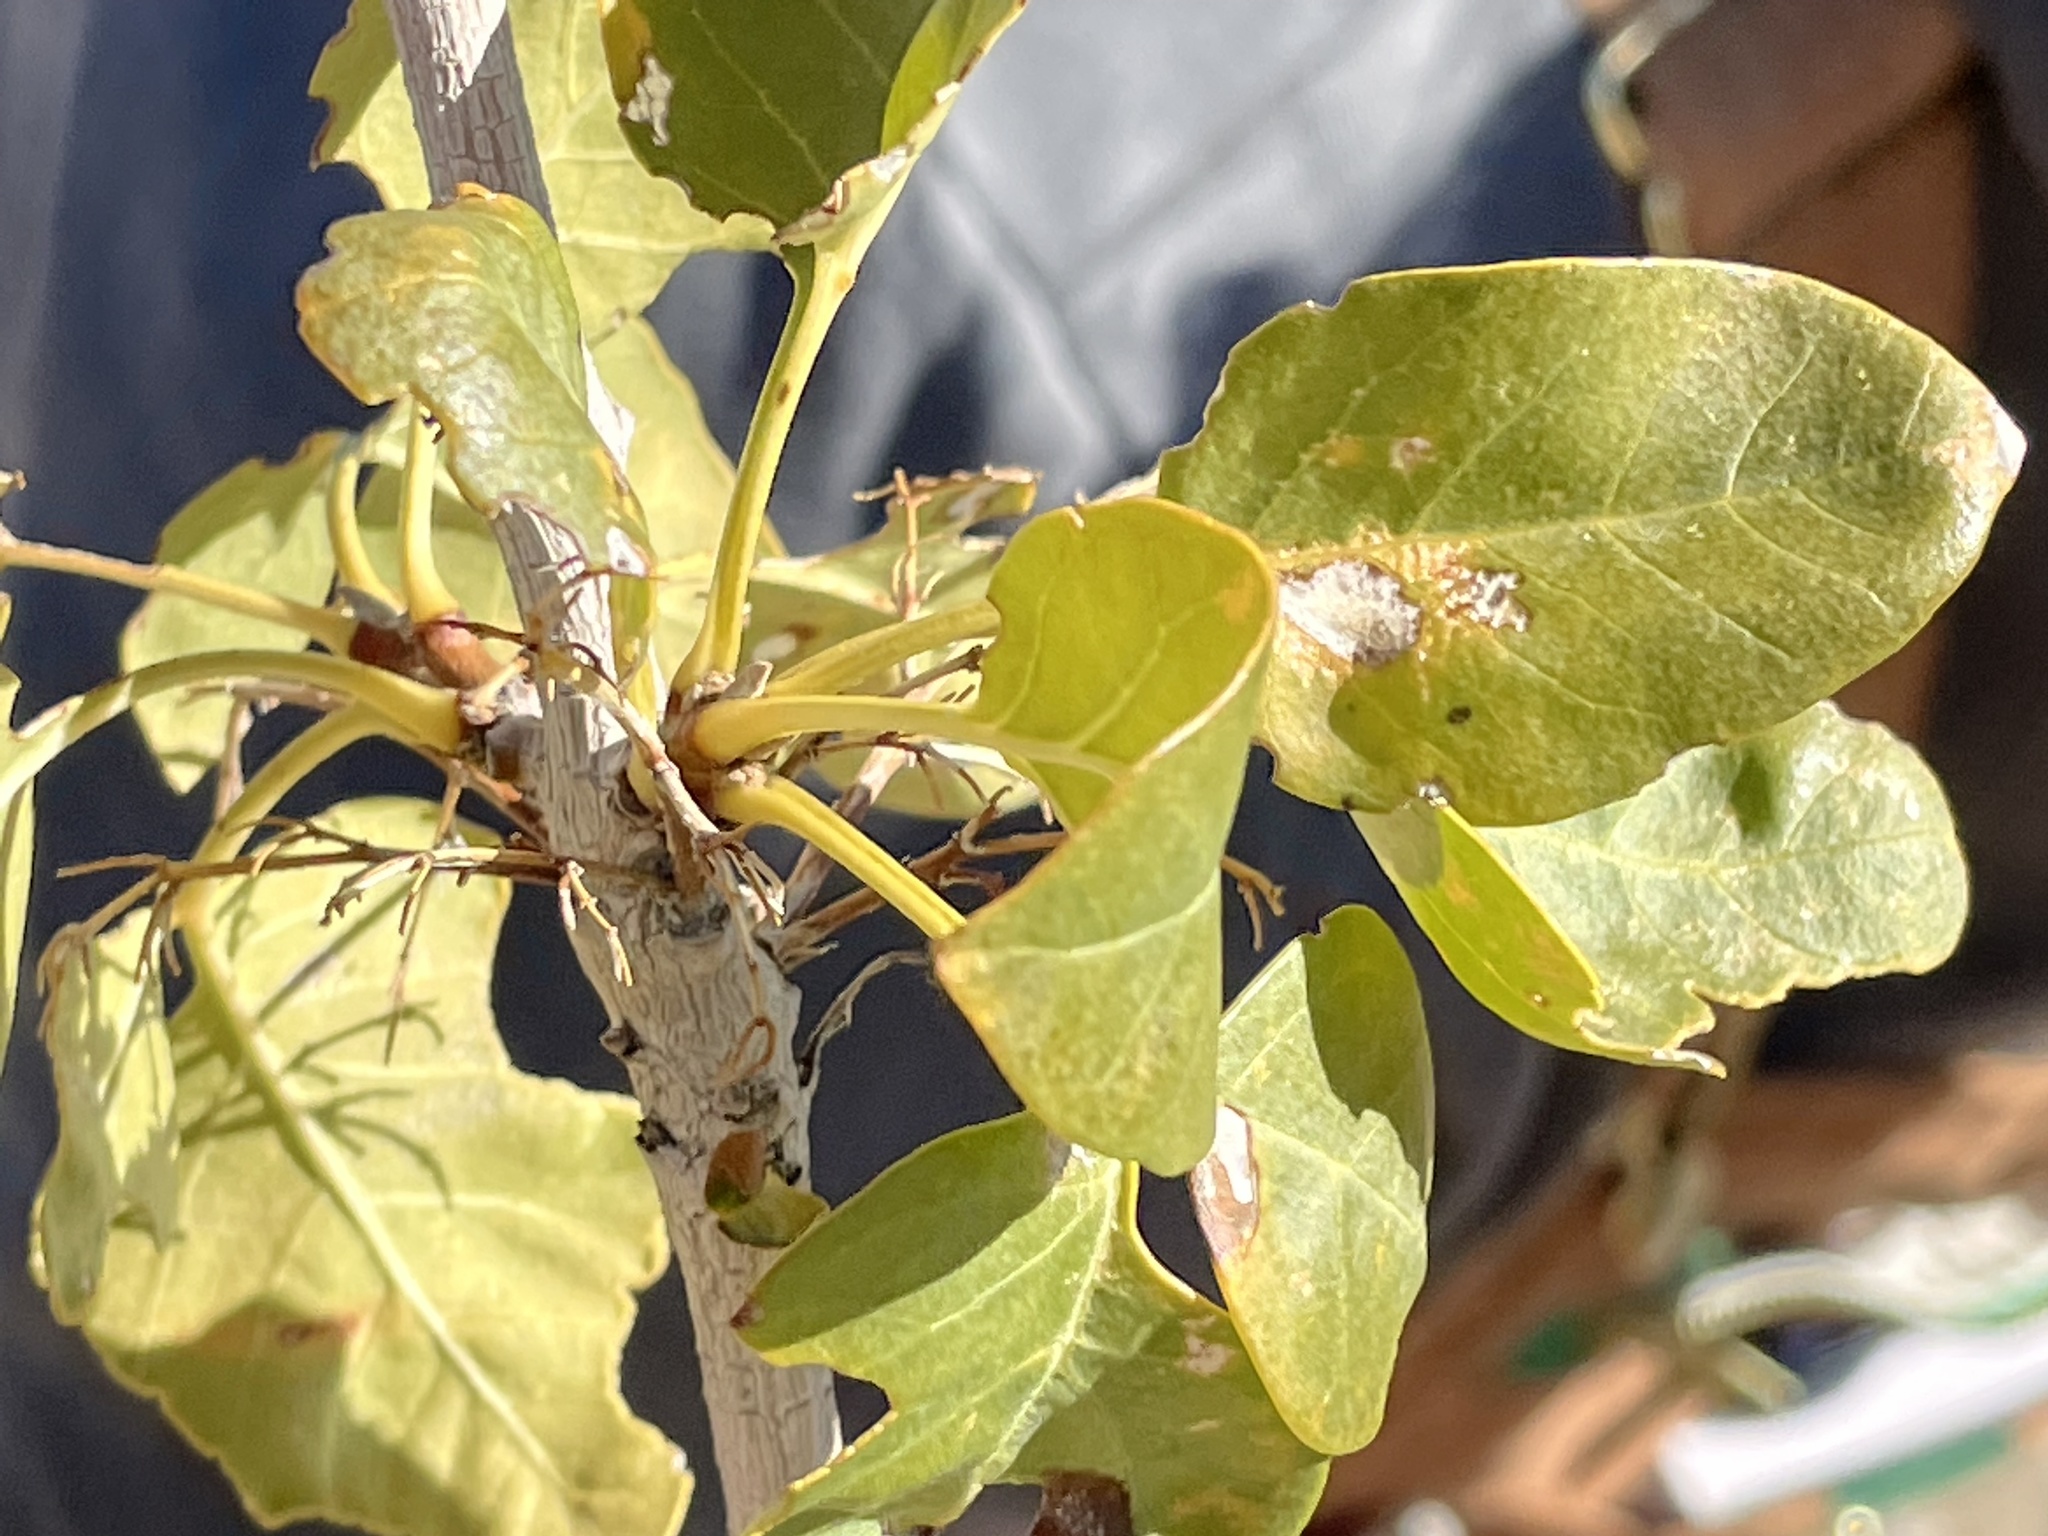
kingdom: Plantae
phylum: Tracheophyta
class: Magnoliopsida
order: Lamiales
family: Oleaceae
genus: Fraxinus
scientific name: Fraxinus anomala
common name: Utah ash
